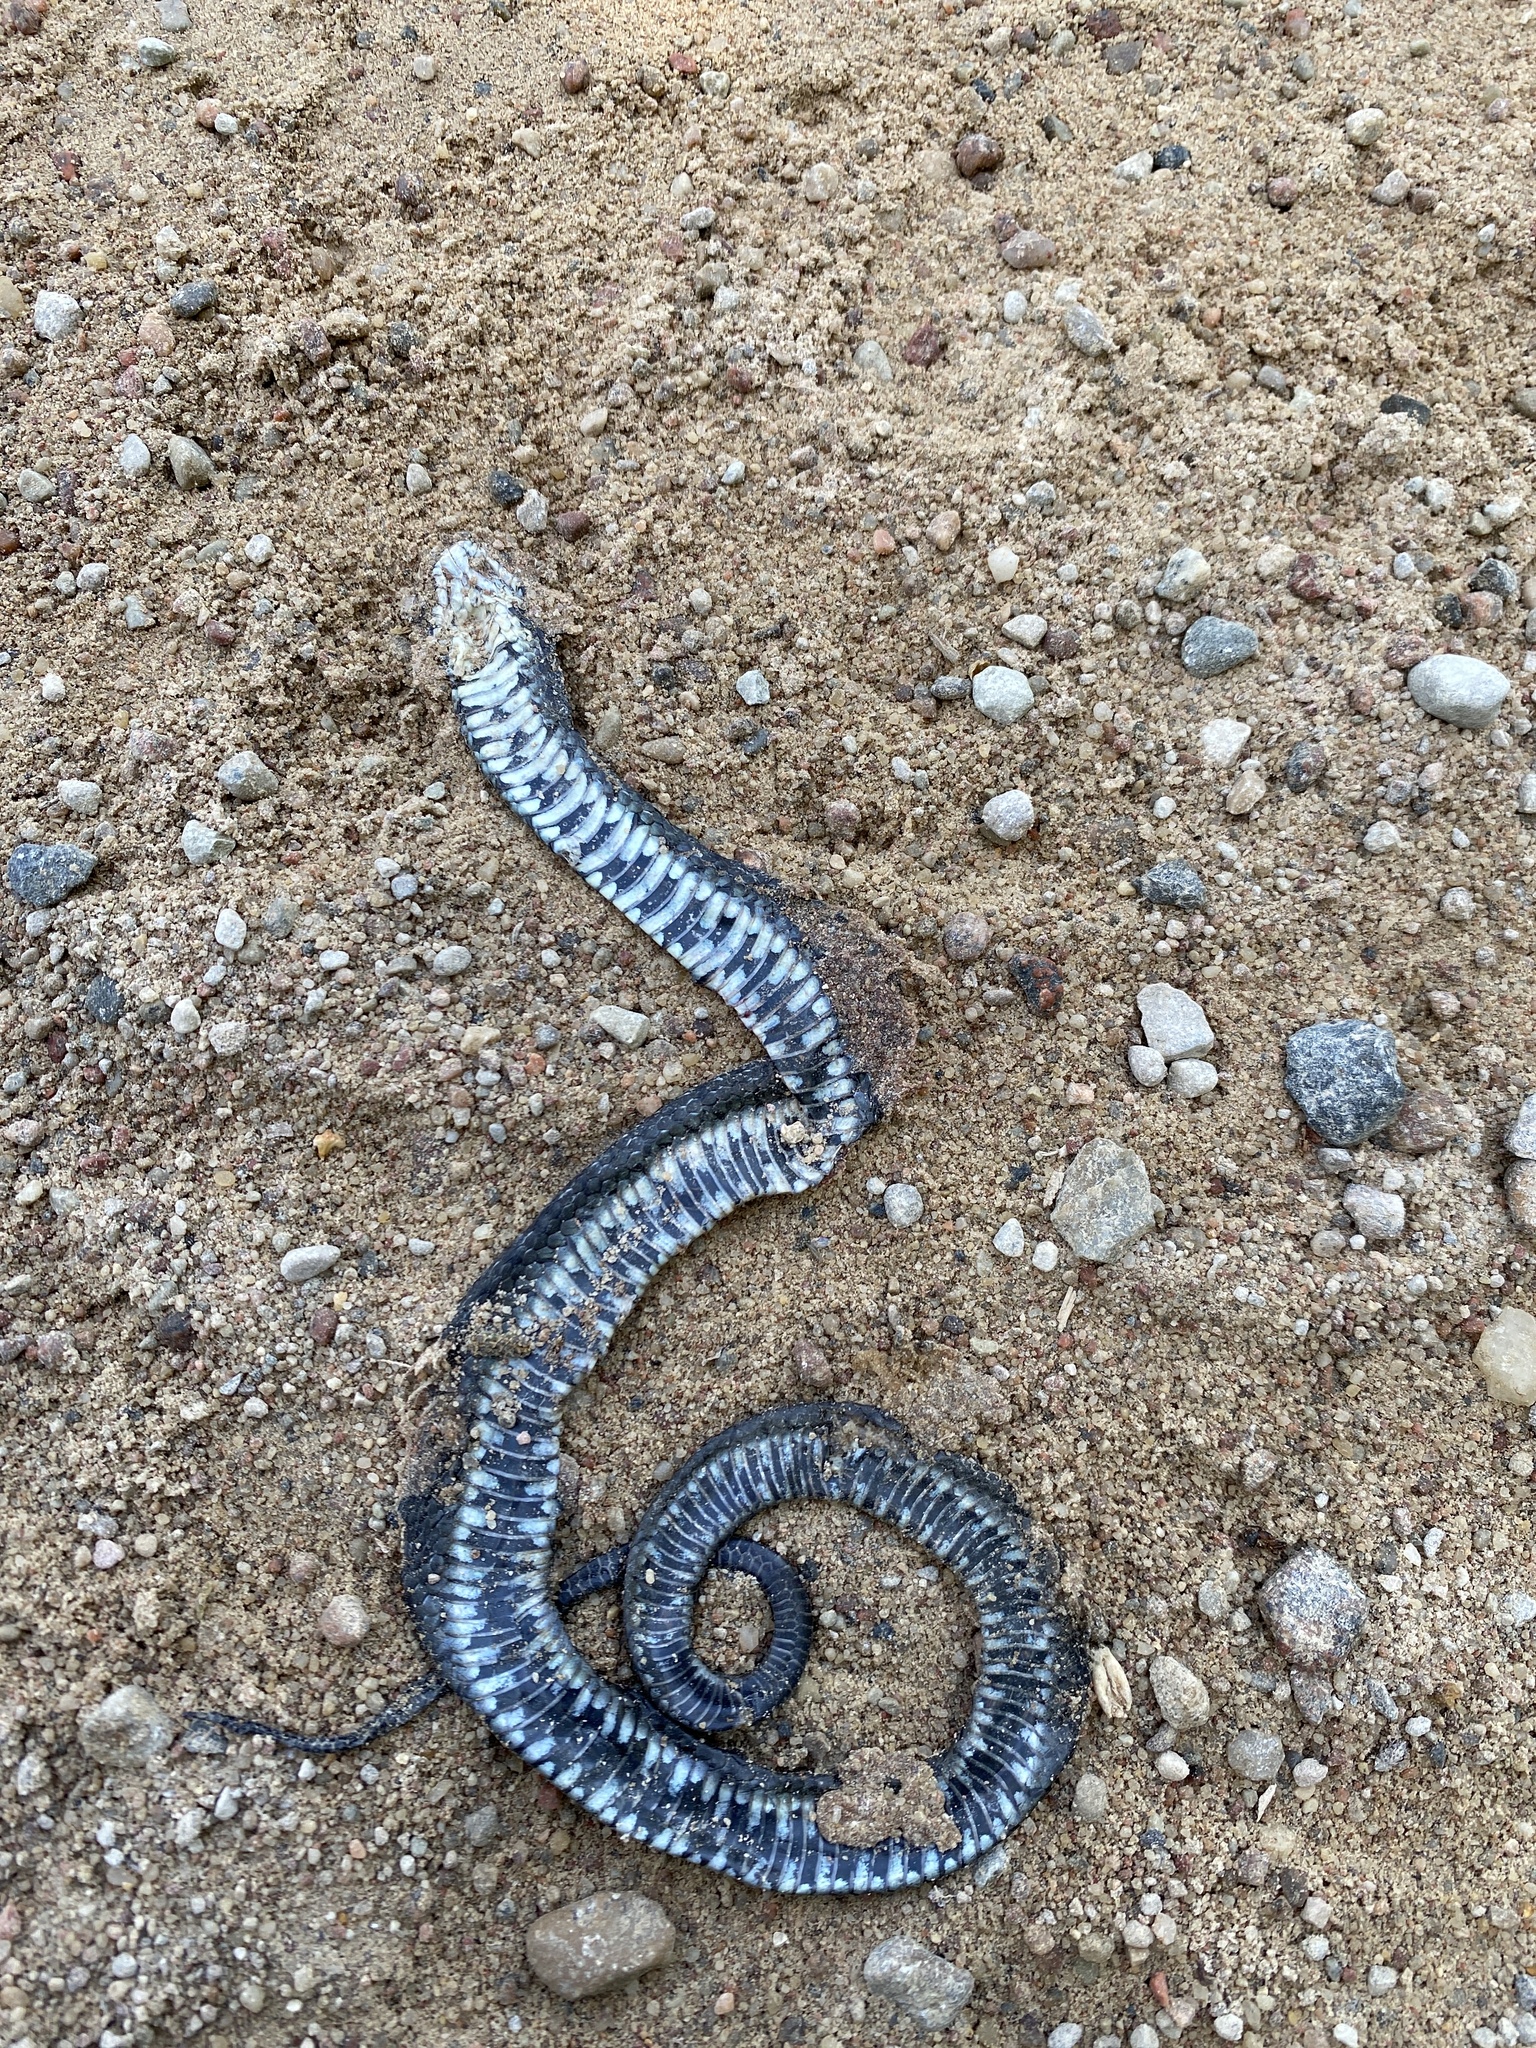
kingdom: Animalia
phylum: Chordata
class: Squamata
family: Colubridae
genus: Natrix
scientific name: Natrix natrix
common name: Grass snake
